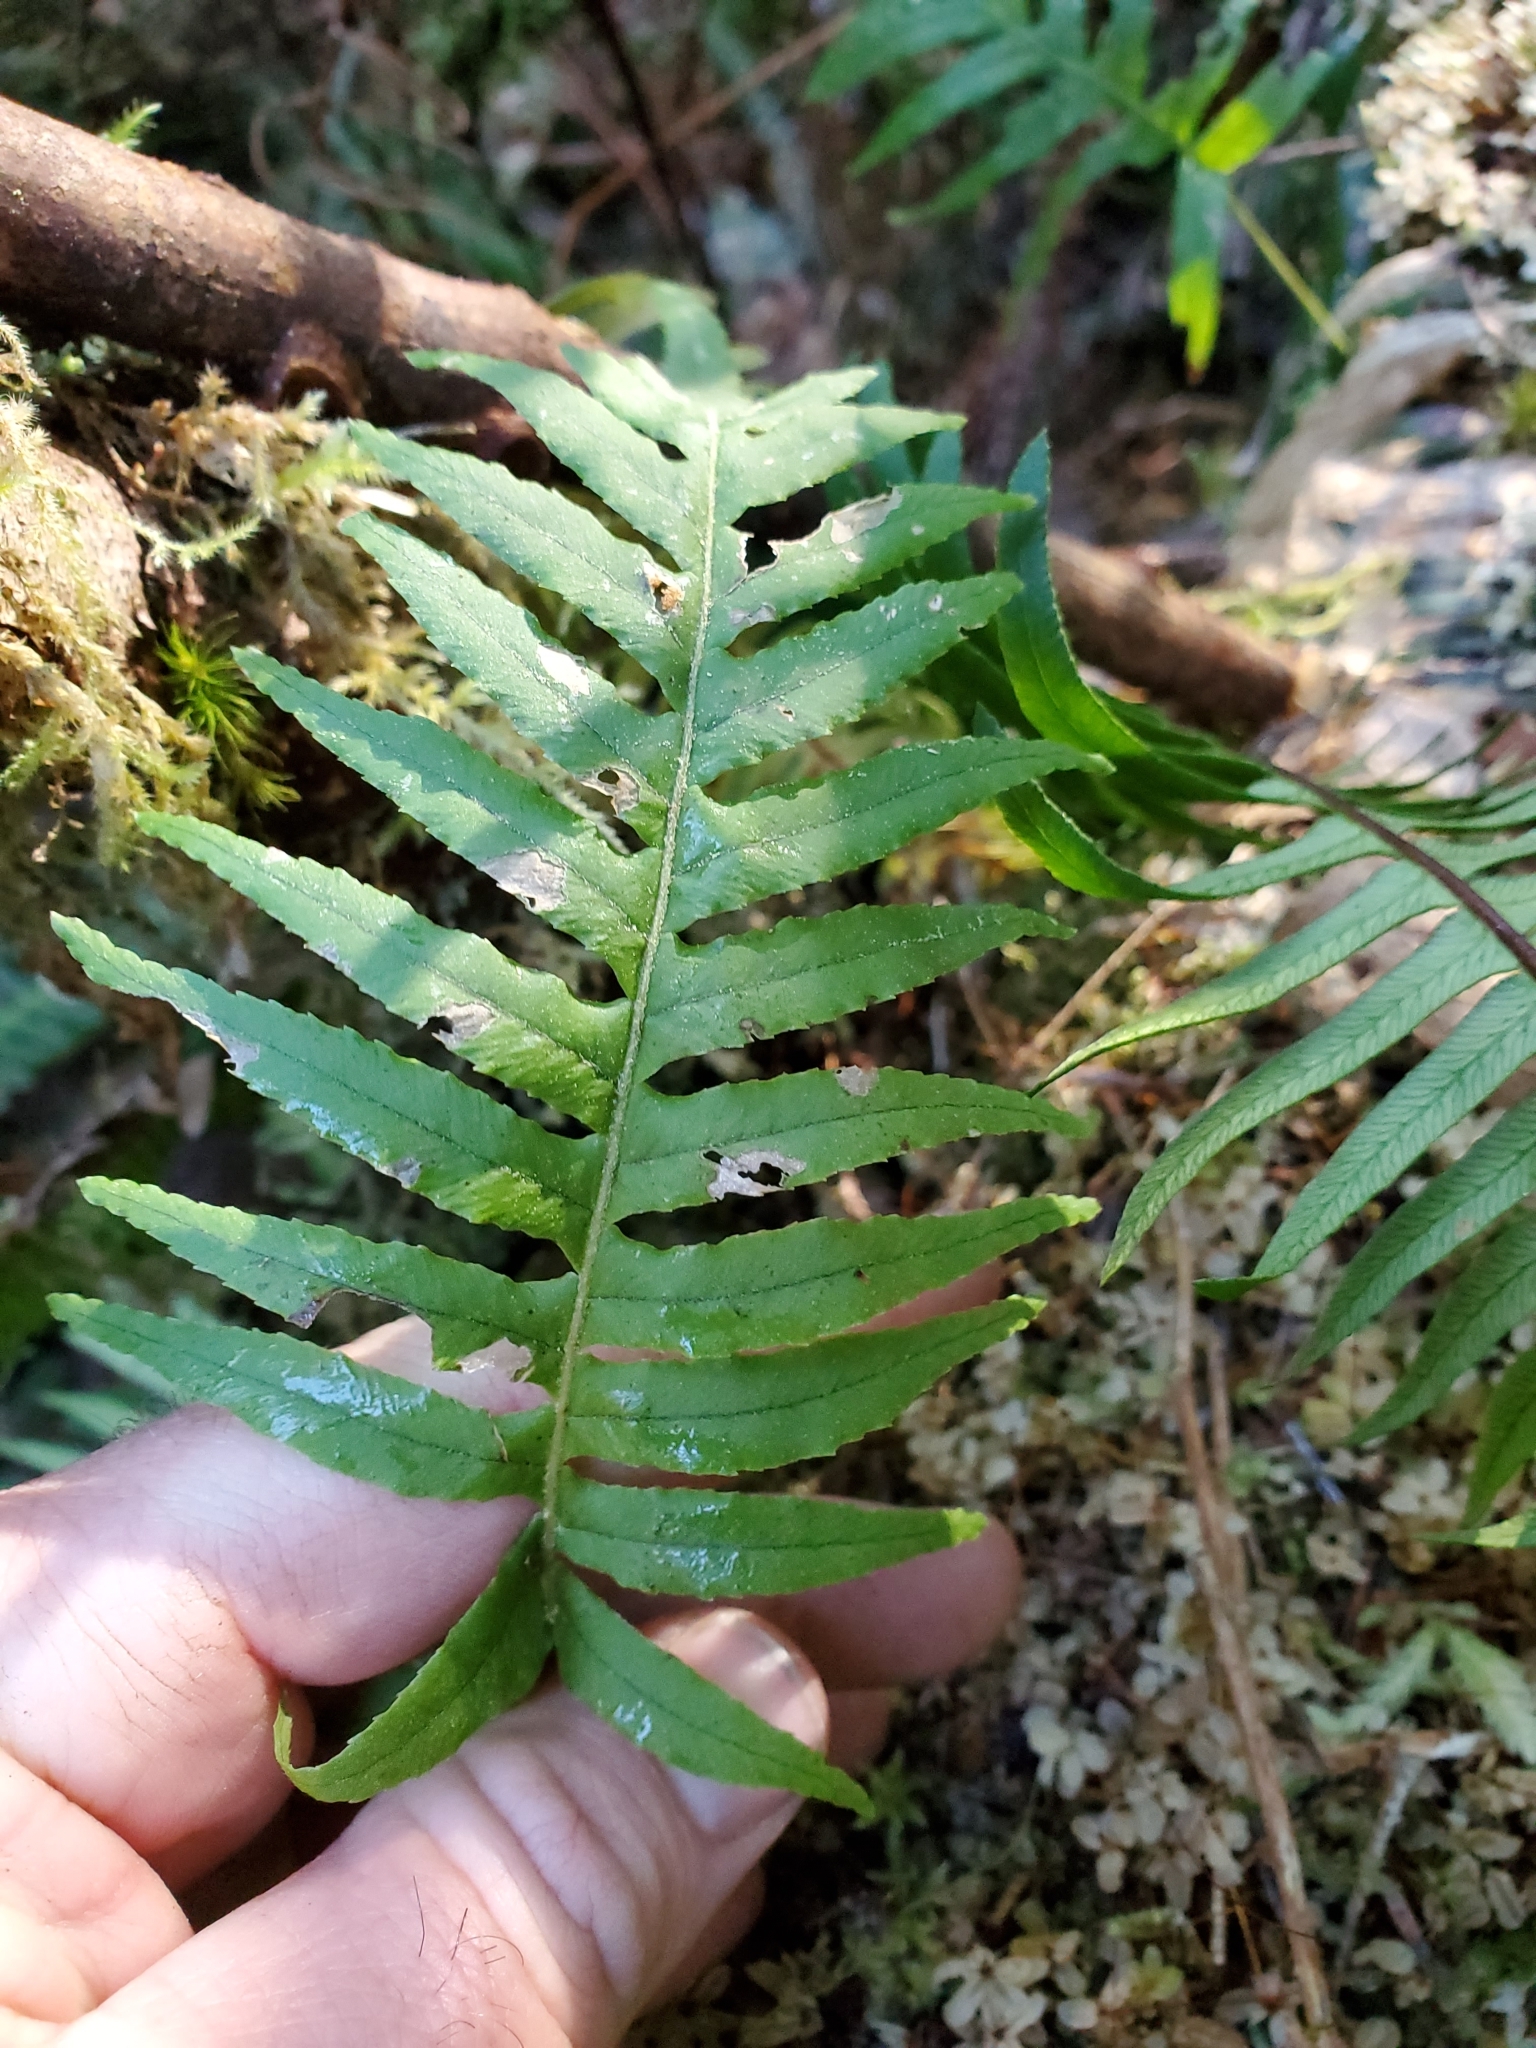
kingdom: Plantae
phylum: Tracheophyta
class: Polypodiopsida
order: Polypodiales
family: Polypodiaceae
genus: Polypodium
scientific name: Polypodium glycyrrhiza
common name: Licorice fern
